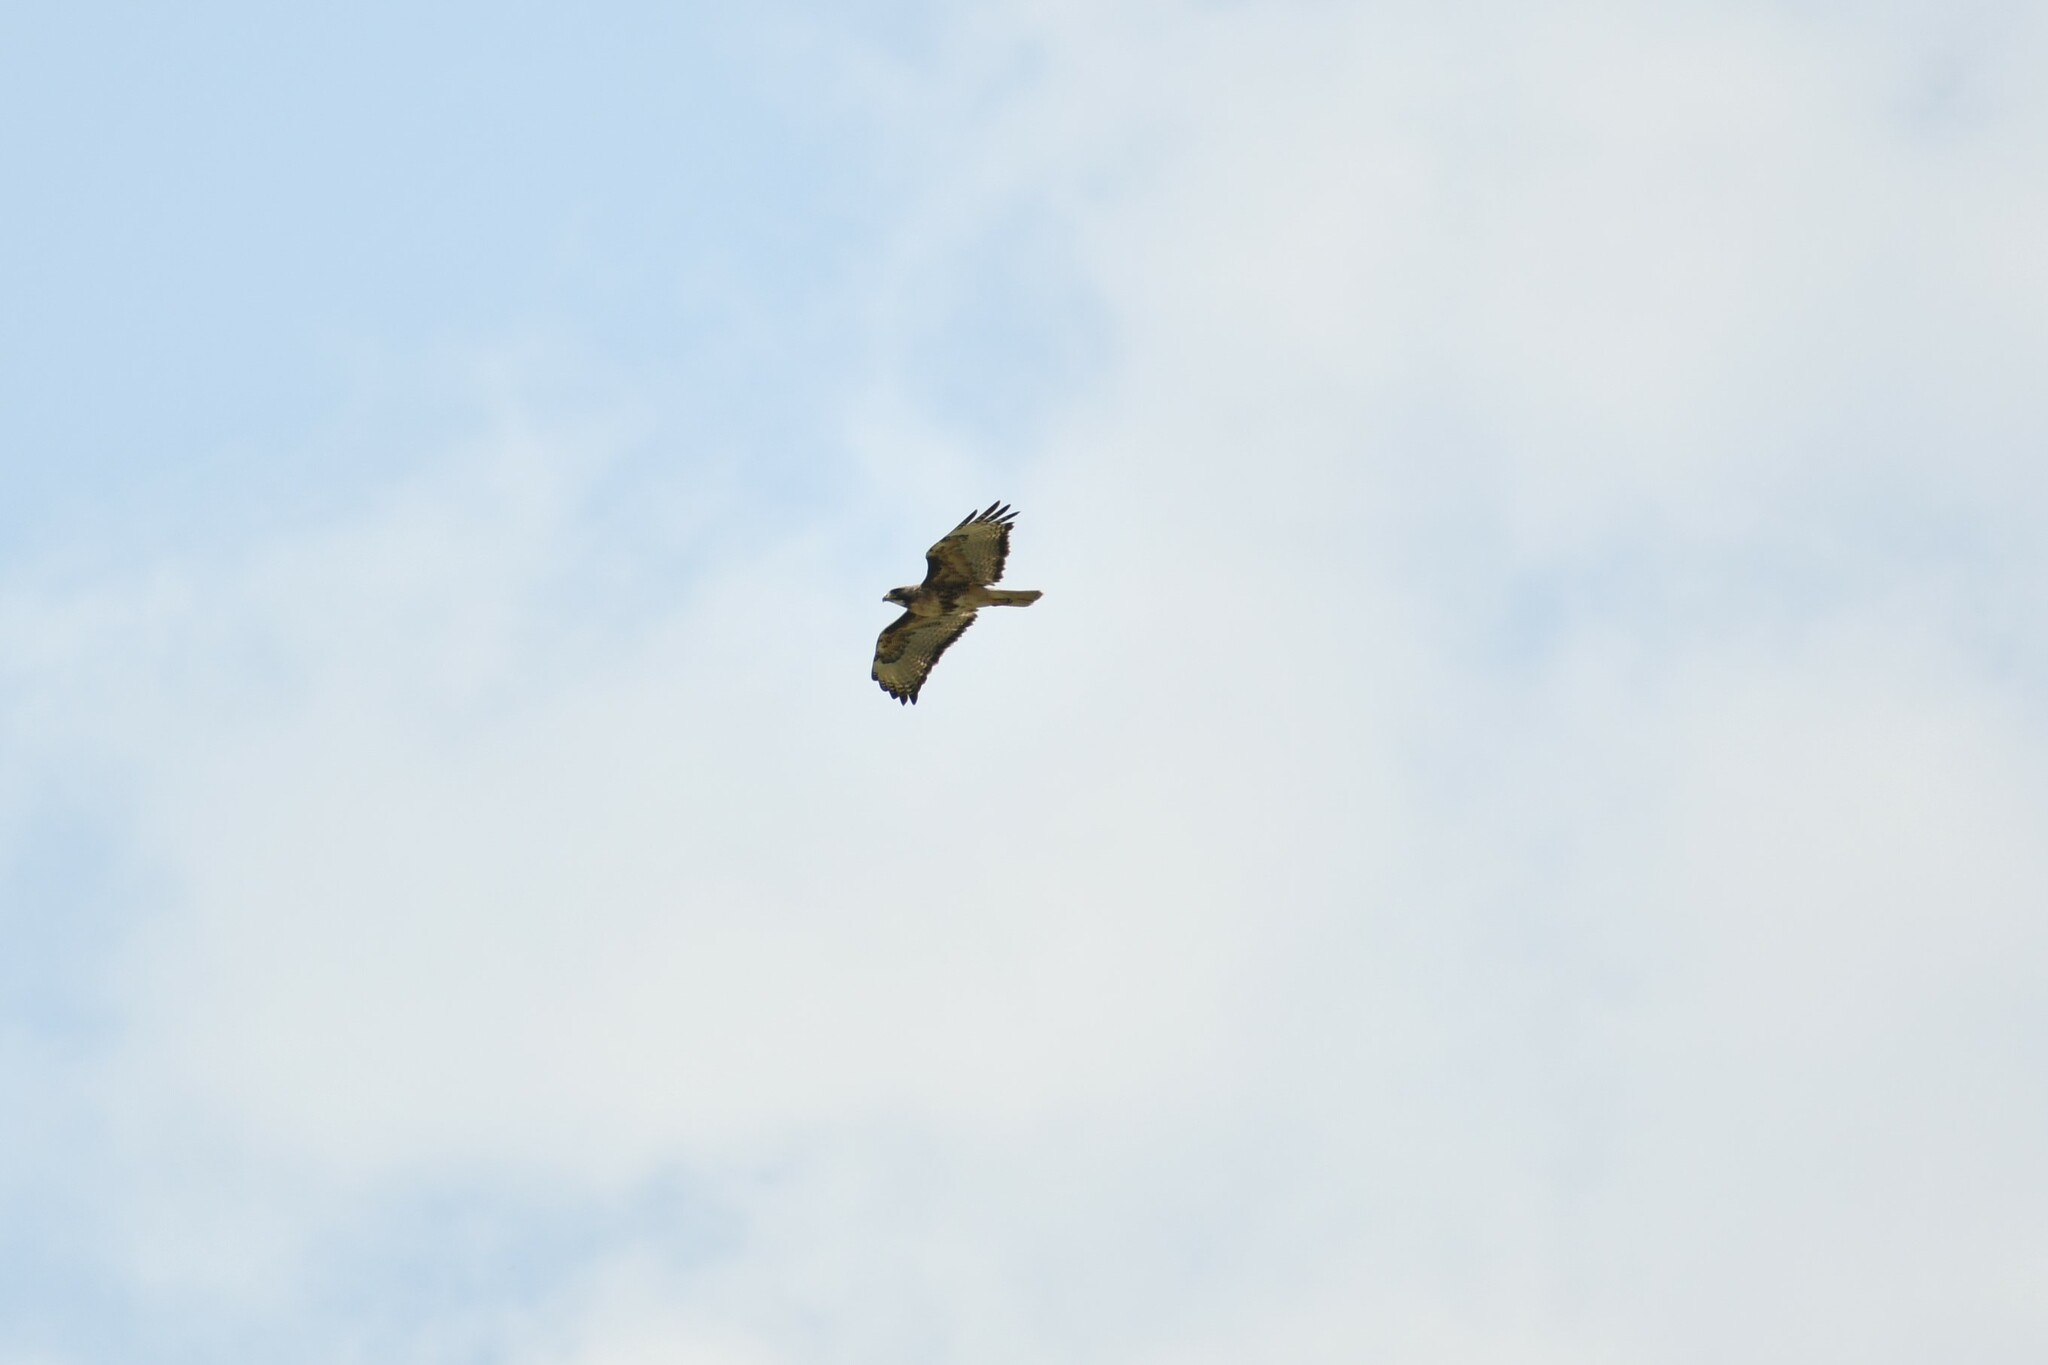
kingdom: Animalia
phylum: Chordata
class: Aves
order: Accipitriformes
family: Accipitridae
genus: Buteo
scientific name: Buteo jamaicensis
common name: Red-tailed hawk
